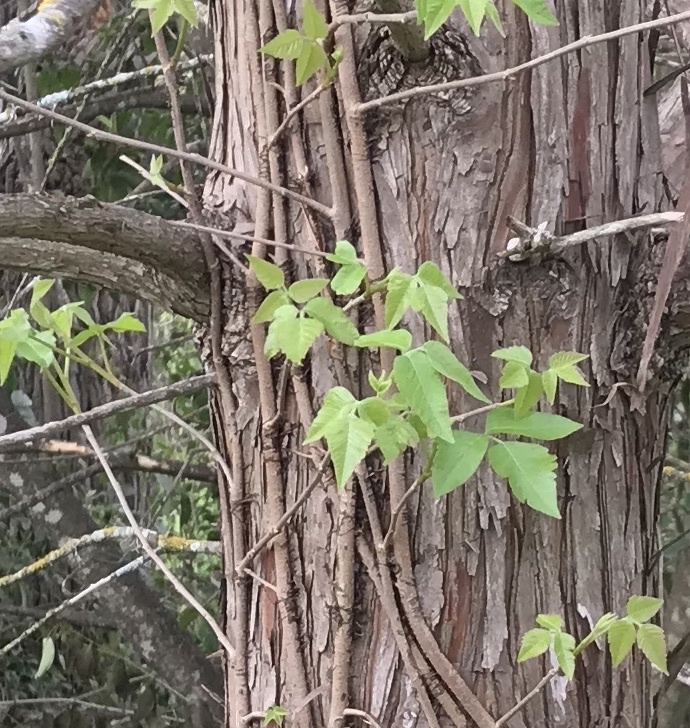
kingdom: Plantae
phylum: Tracheophyta
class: Magnoliopsida
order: Sapindales
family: Anacardiaceae
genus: Toxicodendron
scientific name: Toxicodendron radicans
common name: Poison ivy
